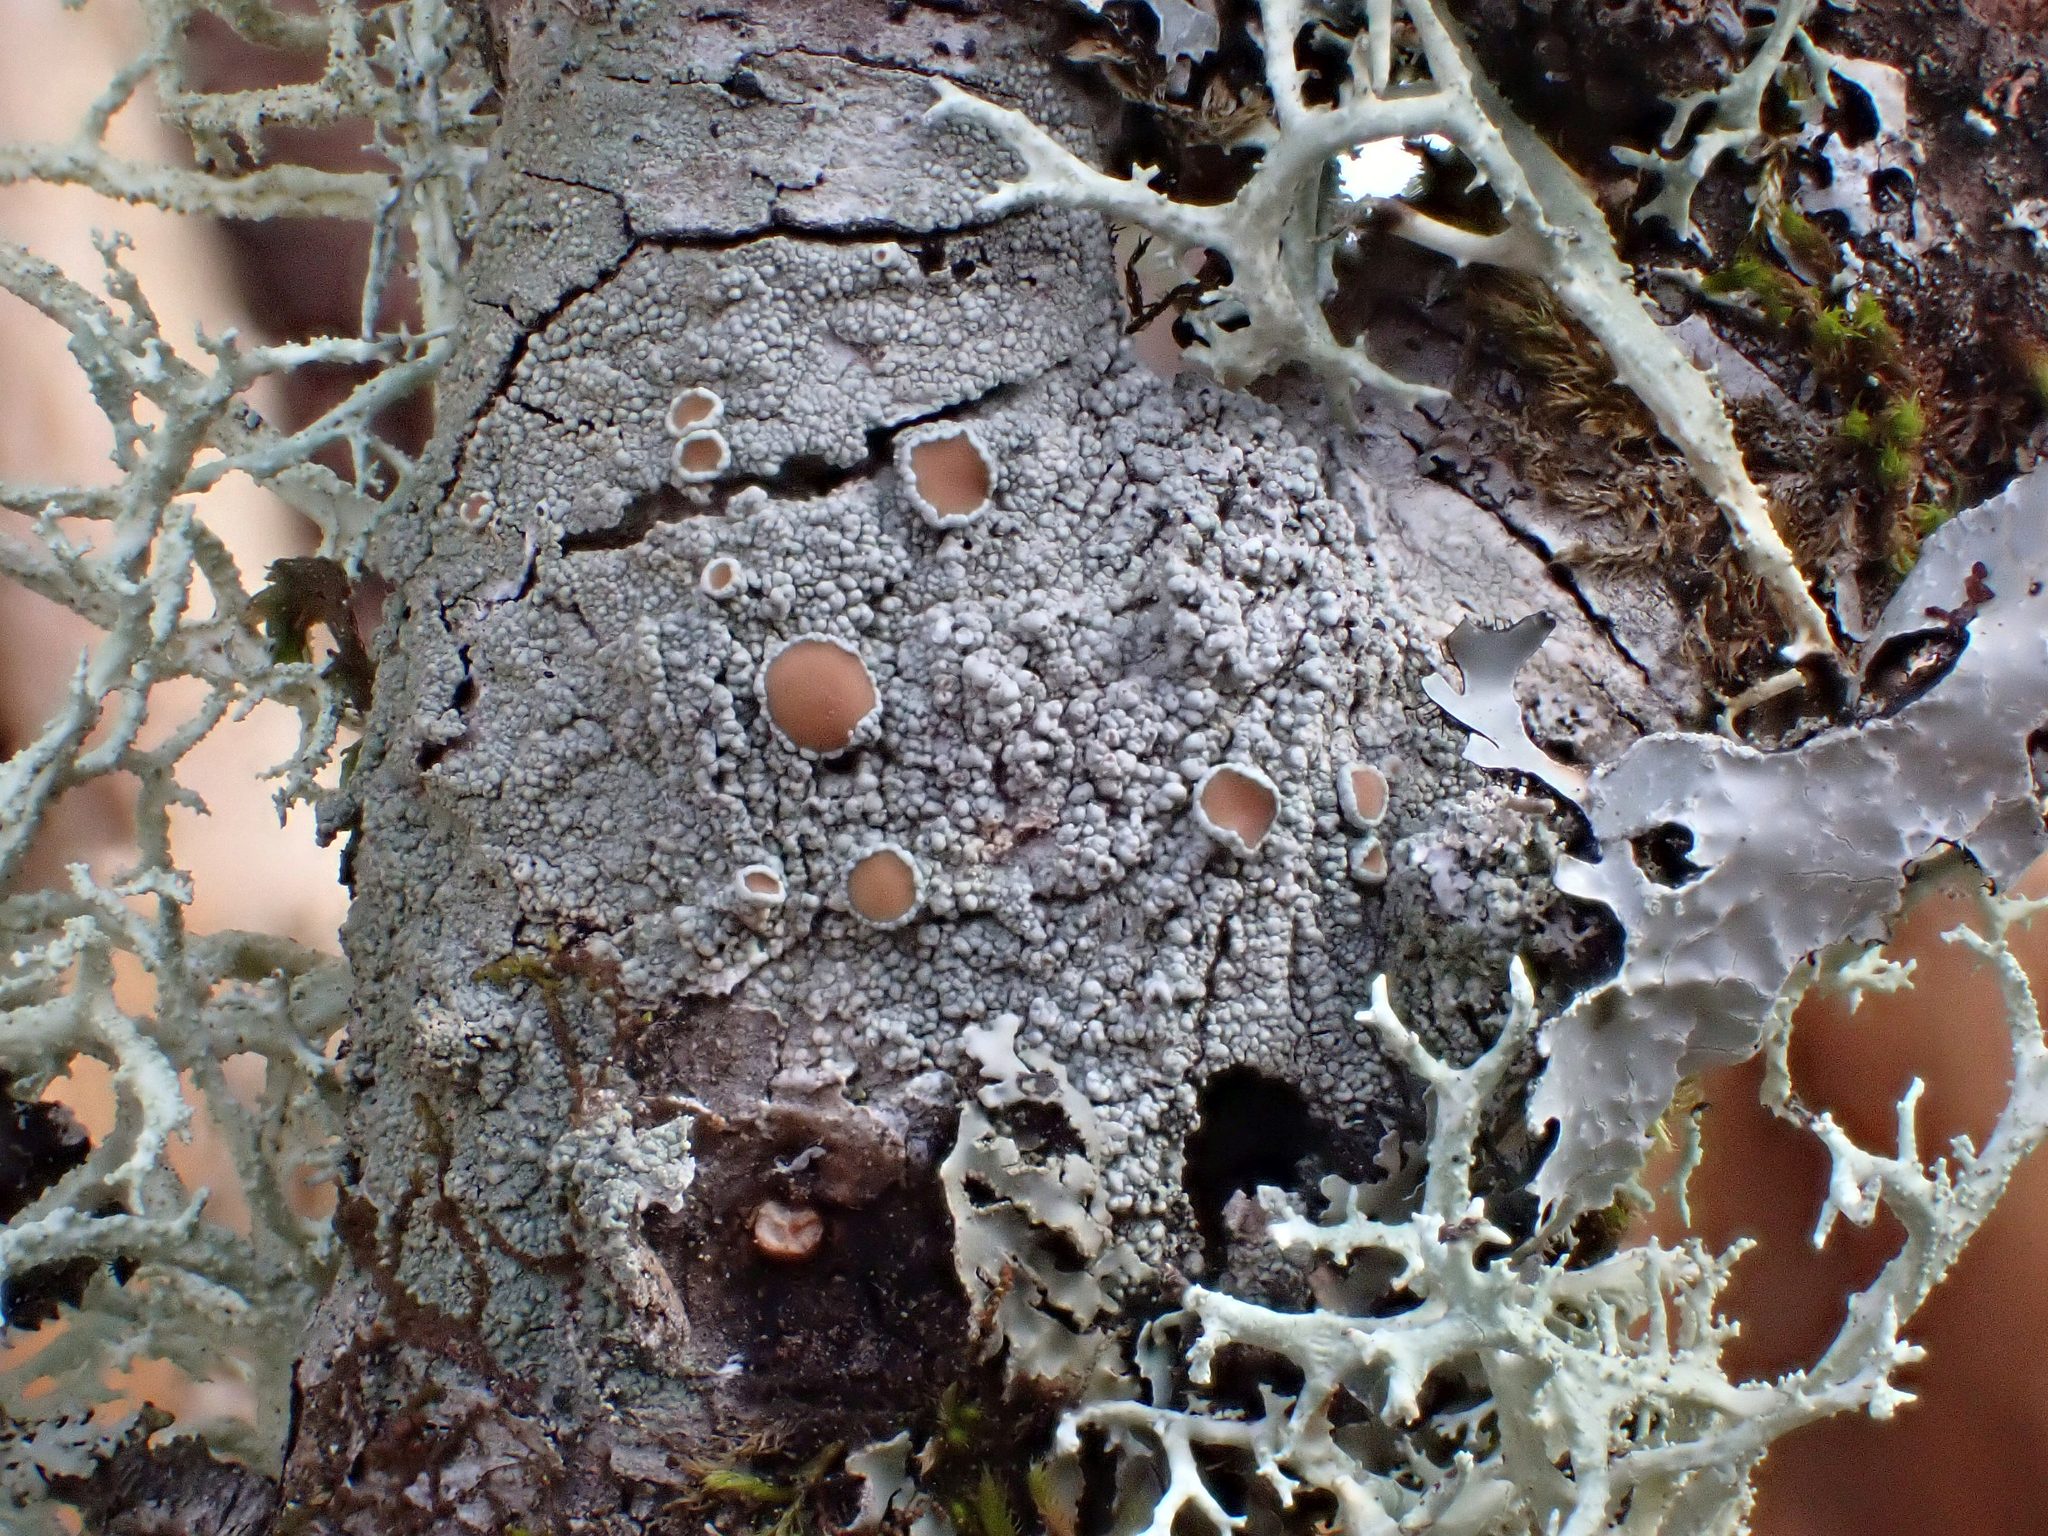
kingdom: Fungi
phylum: Ascomycota
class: Lecanoromycetes
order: Lecanorales
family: Lecanoraceae
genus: Lecanora
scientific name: Lecanora hybocarpa
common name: Bumpy rim-lichen
